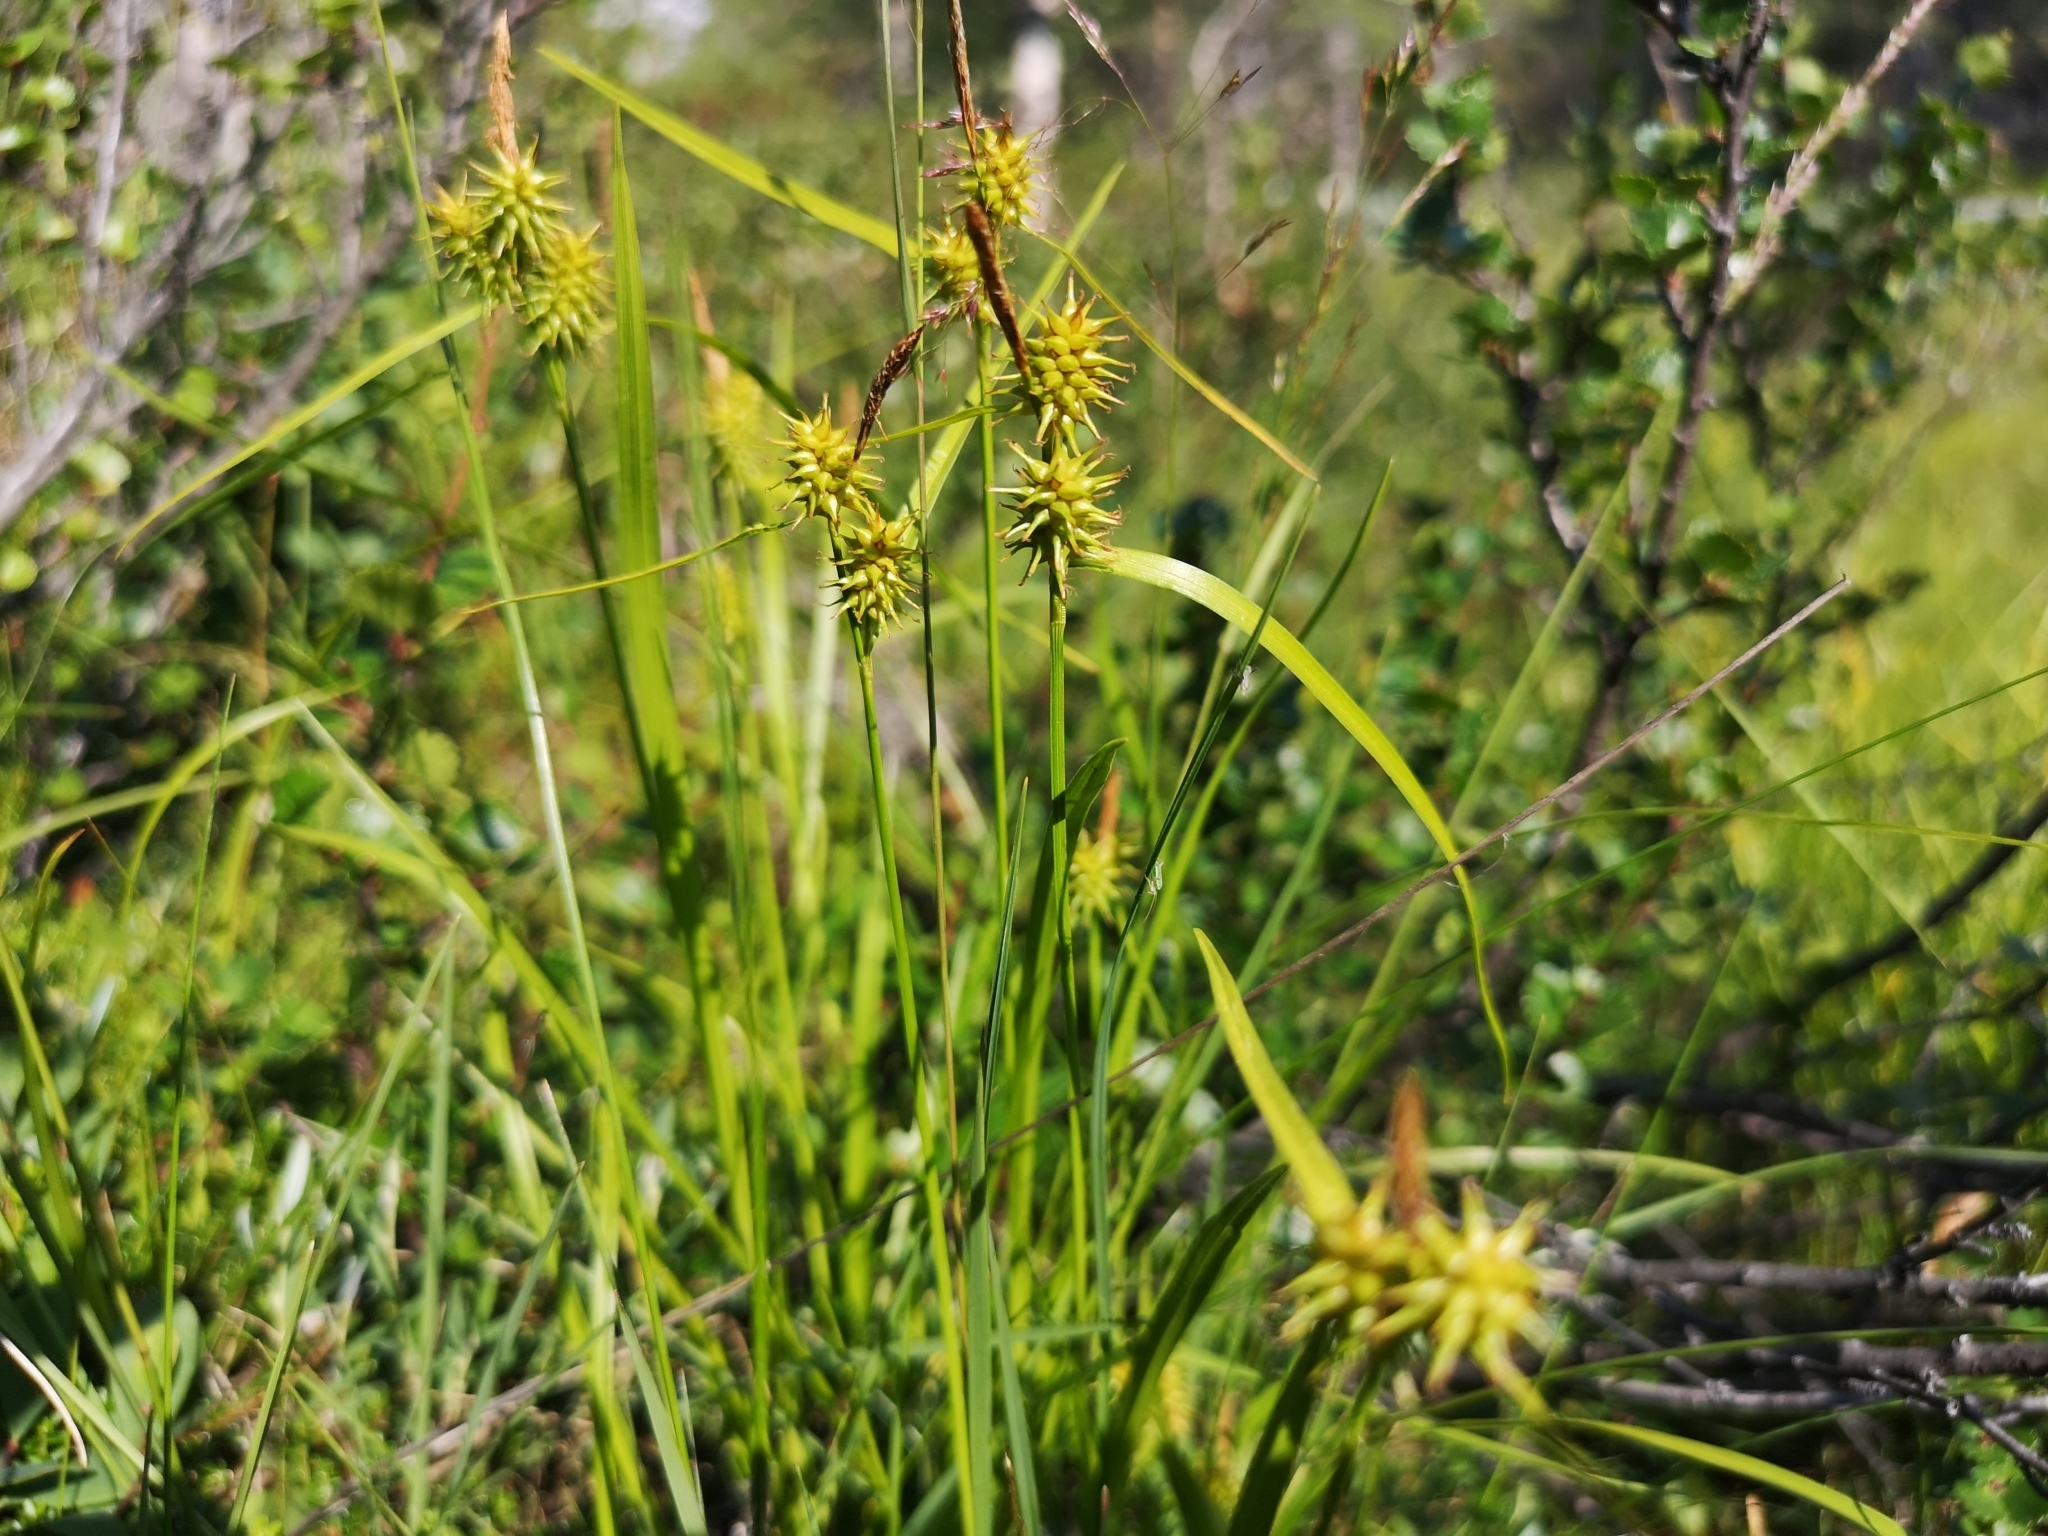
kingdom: Plantae
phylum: Tracheophyta
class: Liliopsida
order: Poales
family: Cyperaceae
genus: Carex
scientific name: Carex flava
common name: Large yellow-sedge
